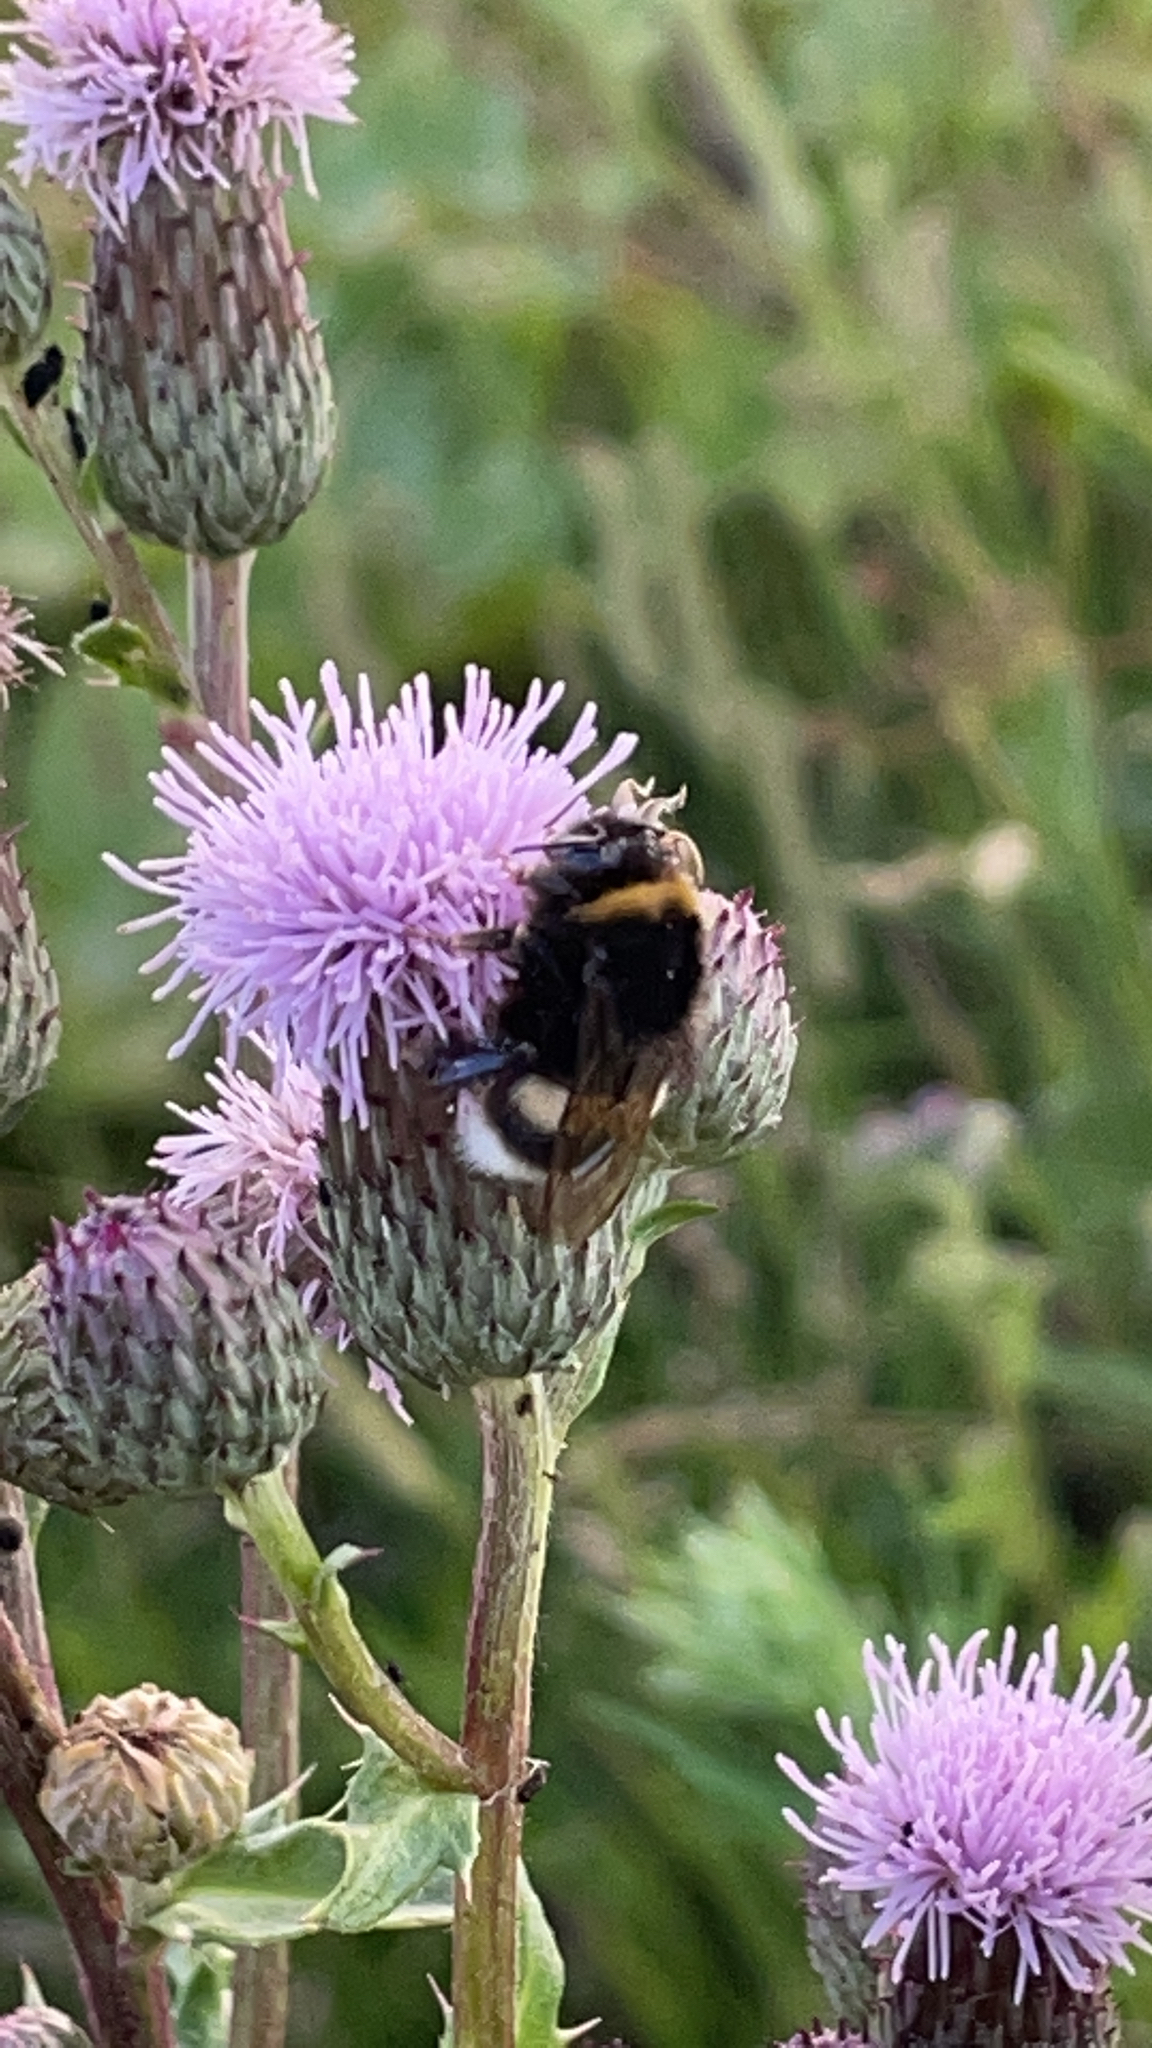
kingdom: Animalia
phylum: Arthropoda
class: Insecta
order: Hymenoptera
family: Apidae
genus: Bombus
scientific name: Bombus
